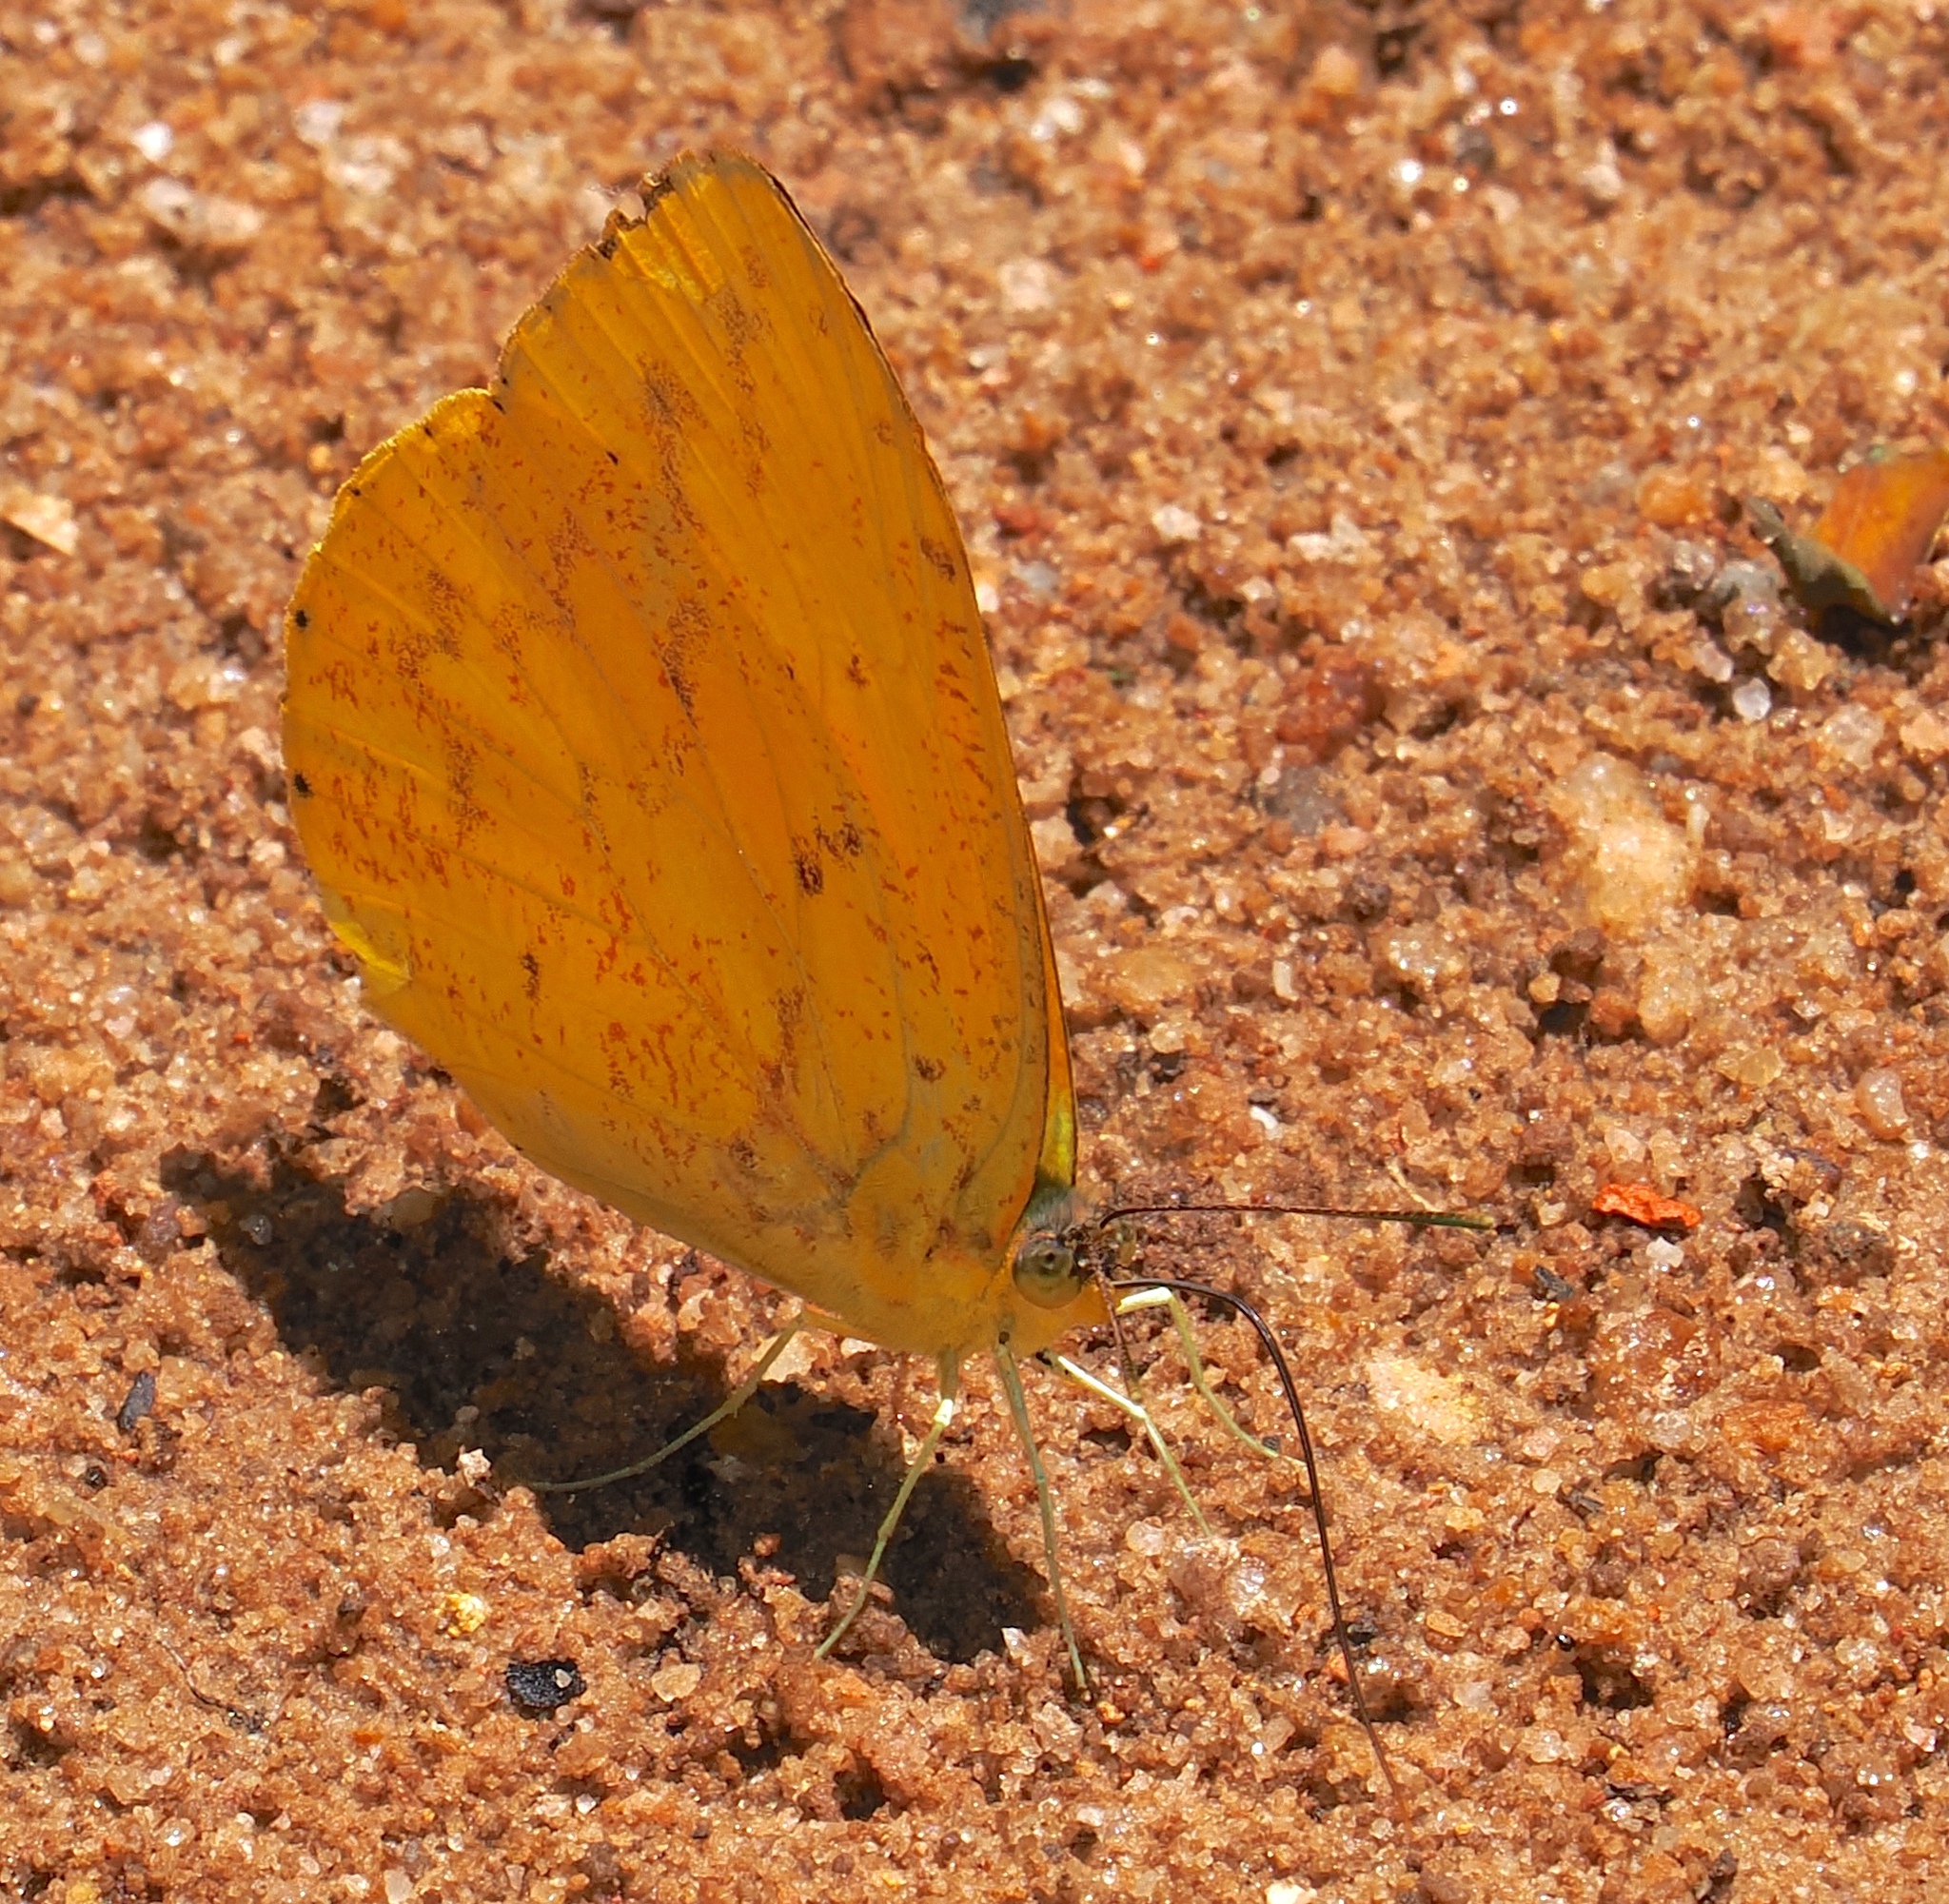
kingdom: Animalia
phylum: Arthropoda
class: Insecta
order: Lepidoptera
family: Pieridae
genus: Phoebis
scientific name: Phoebis argante
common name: Apricot sulphur
